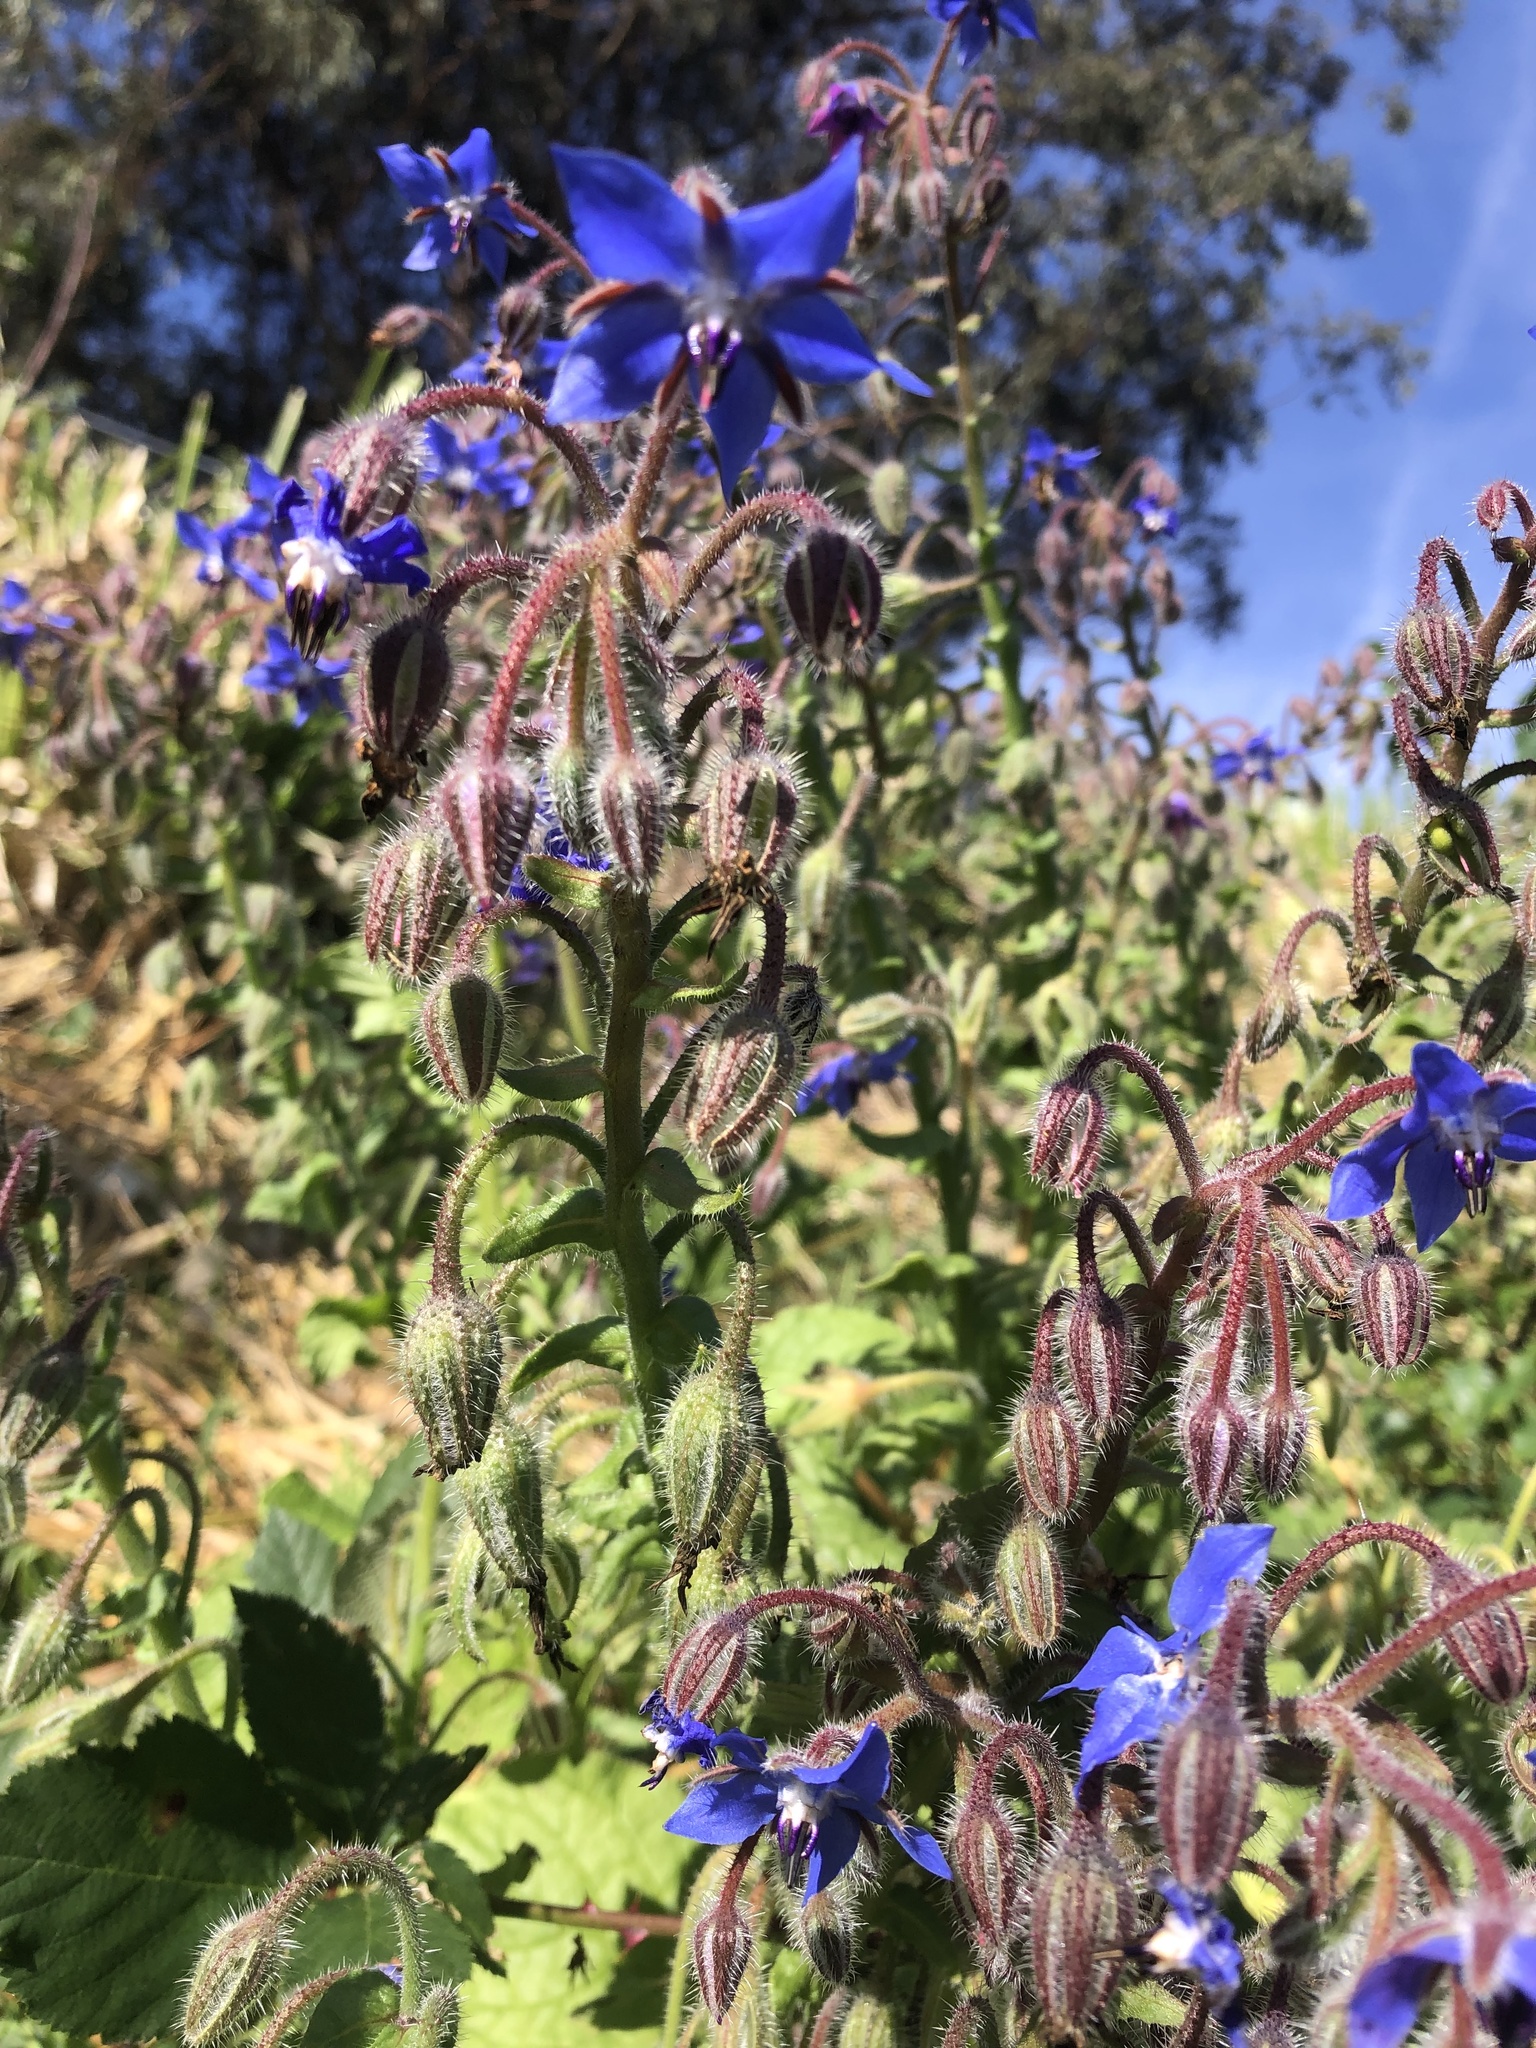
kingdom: Plantae
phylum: Tracheophyta
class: Magnoliopsida
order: Boraginales
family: Boraginaceae
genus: Borago
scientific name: Borago officinalis
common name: Borage
